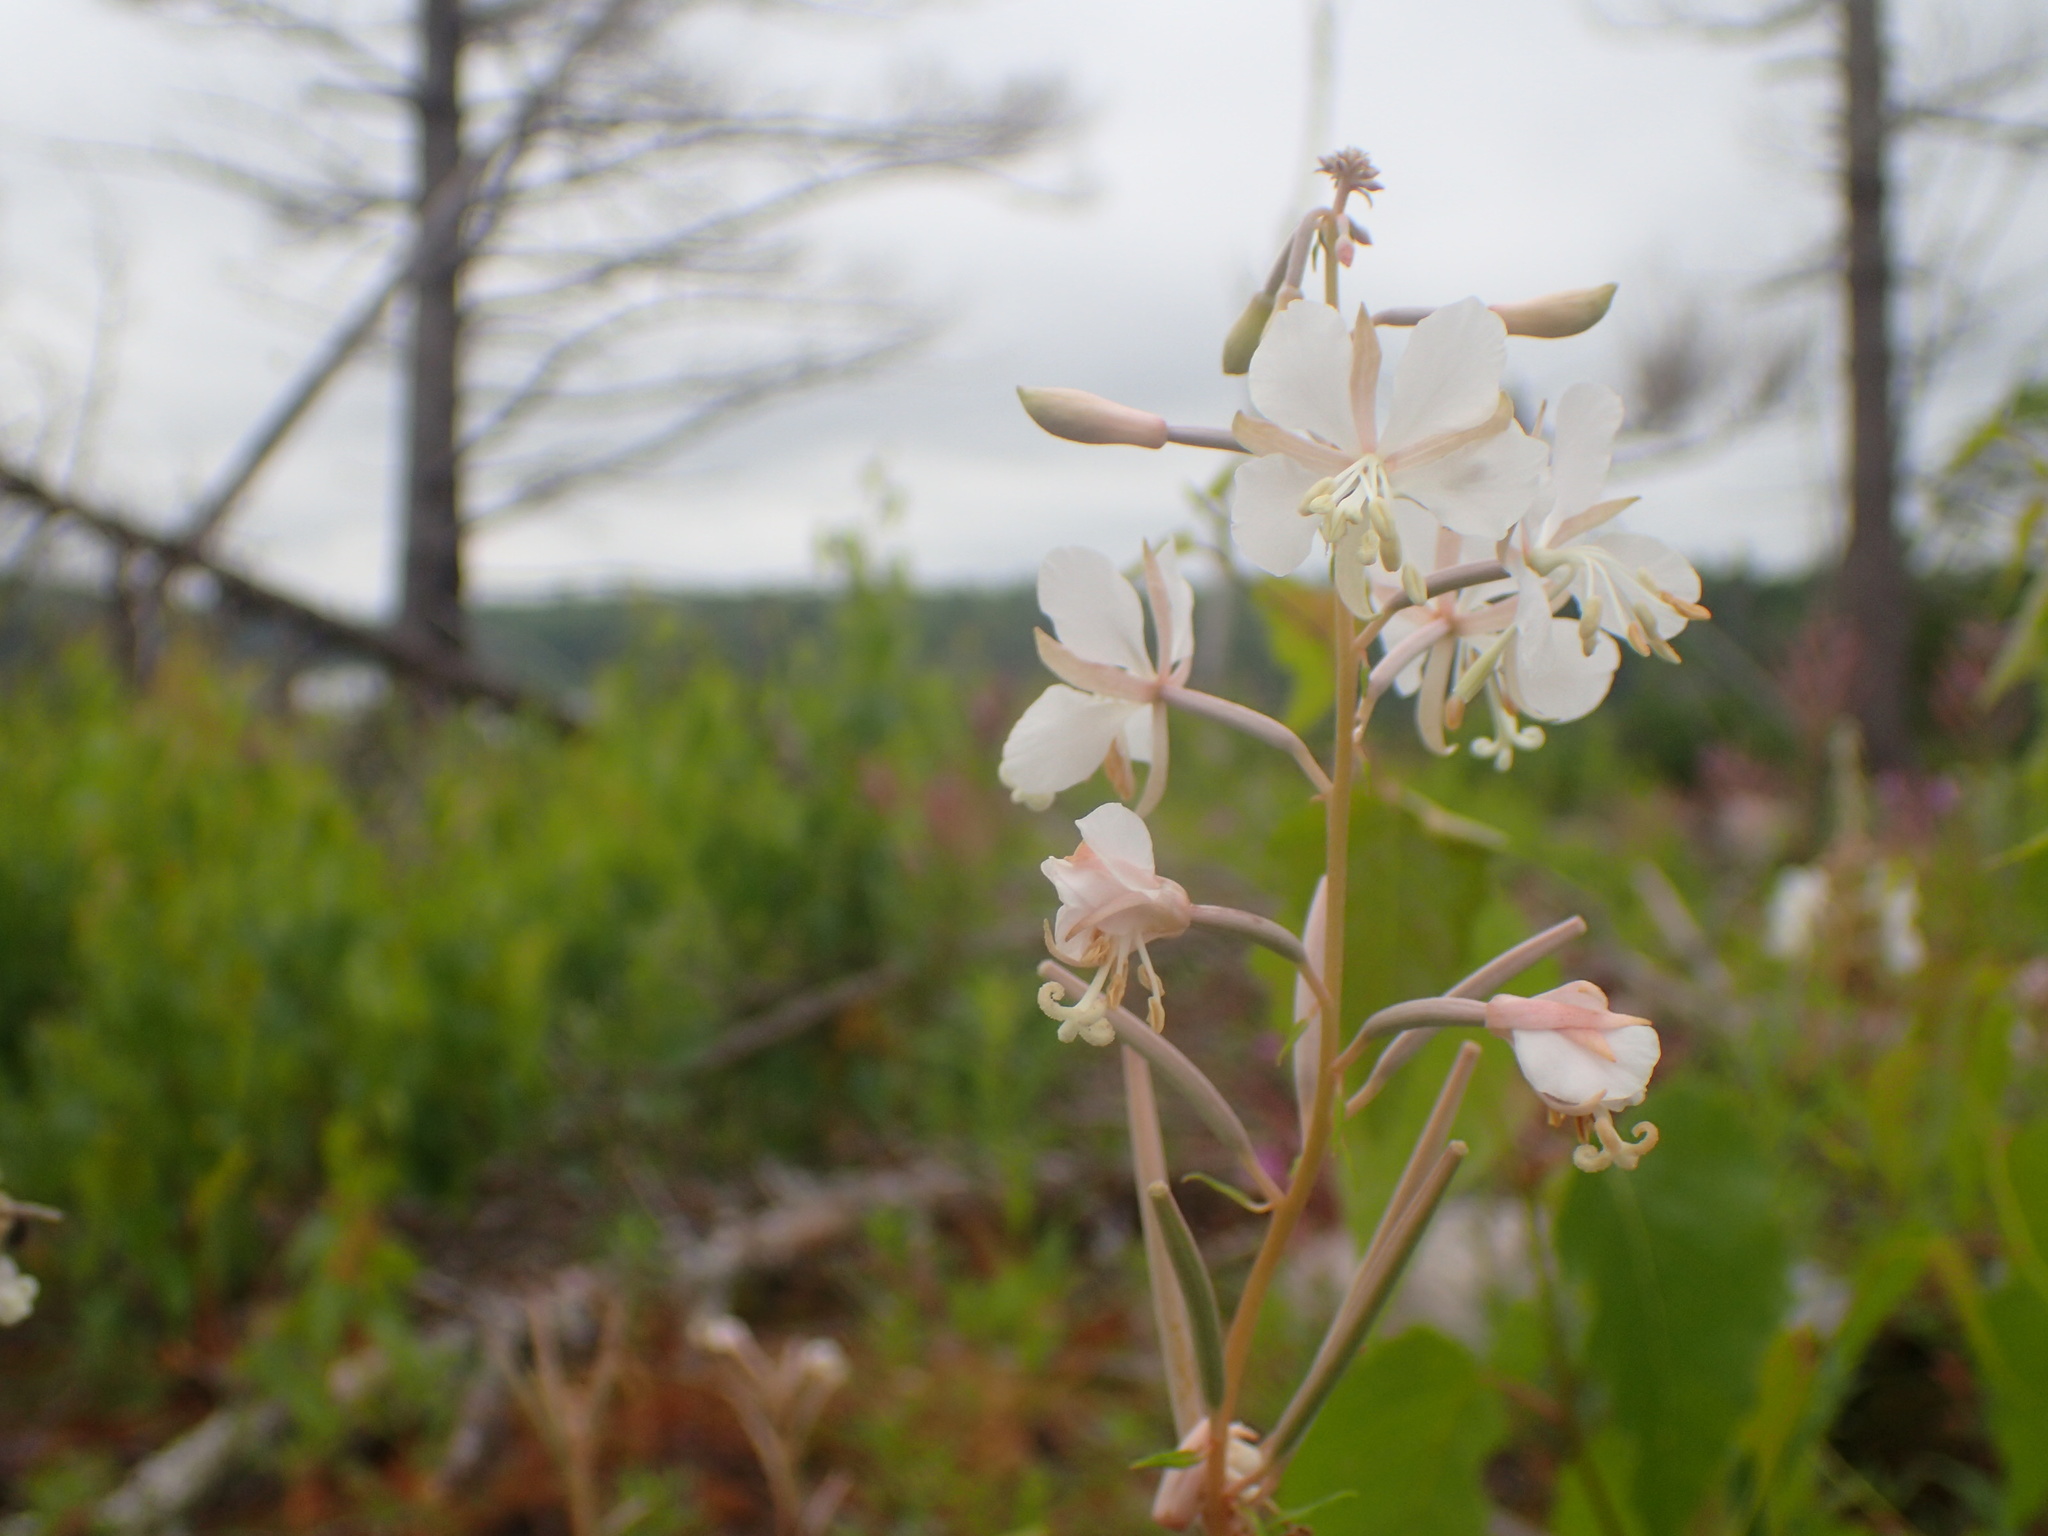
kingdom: Plantae
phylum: Tracheophyta
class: Magnoliopsida
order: Myrtales
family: Onagraceae
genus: Chamaenerion
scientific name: Chamaenerion angustifolium
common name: Fireweed
